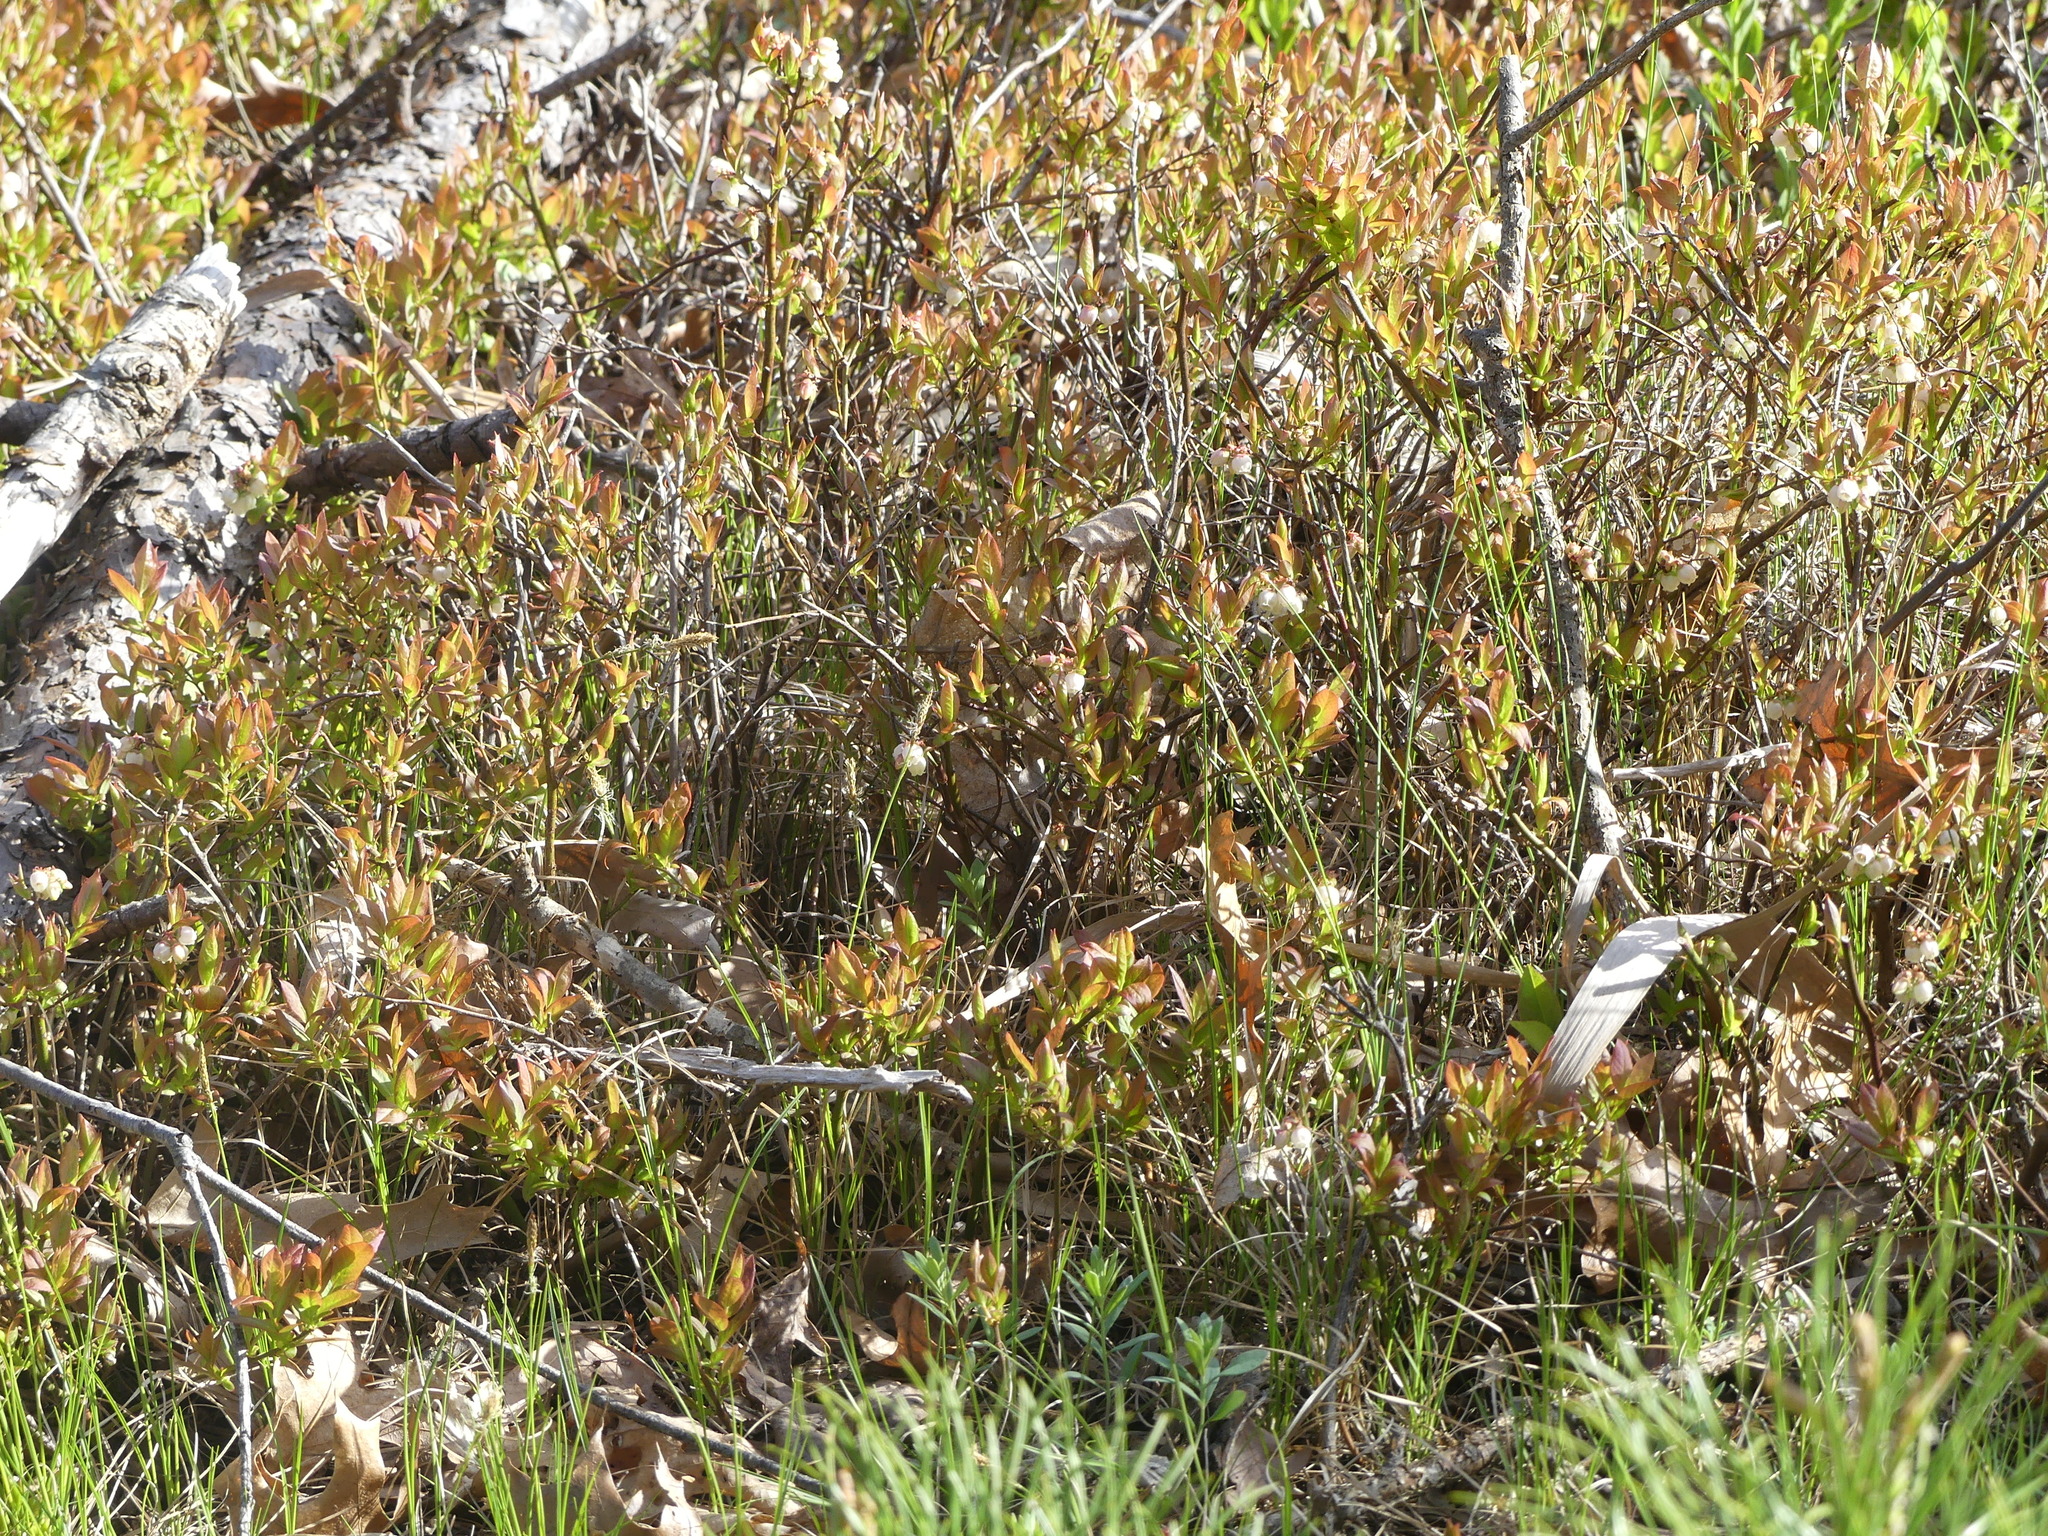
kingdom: Plantae
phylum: Tracheophyta
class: Magnoliopsida
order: Ericales
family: Ericaceae
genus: Vaccinium
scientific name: Vaccinium angustifolium
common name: Early lowbush blueberry
